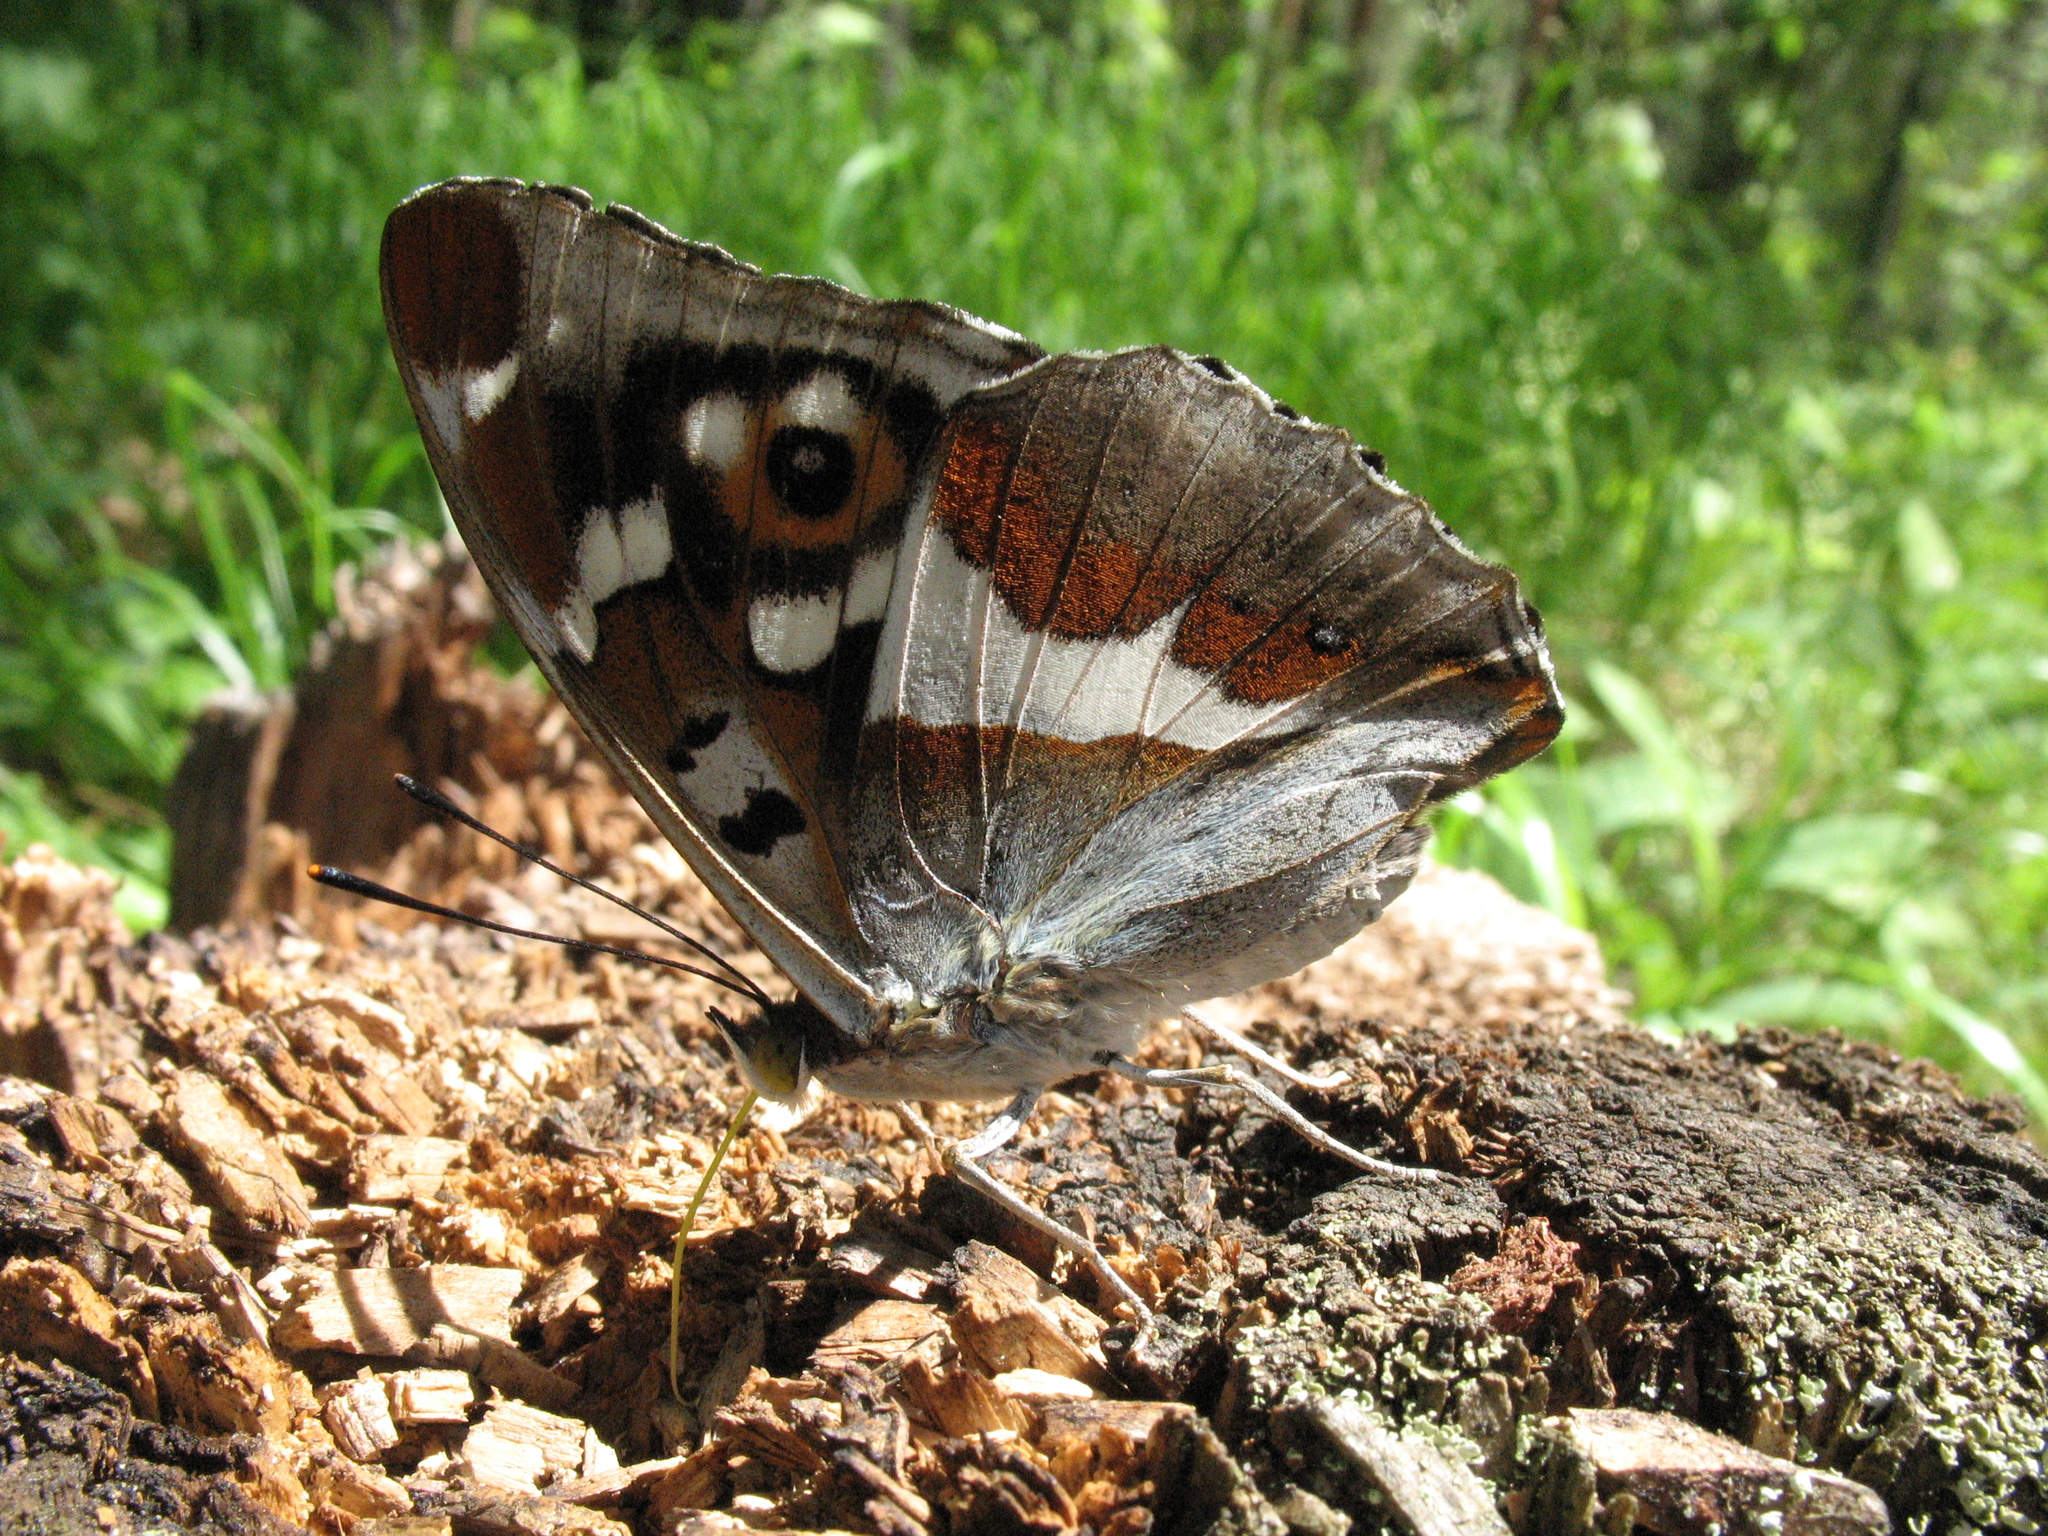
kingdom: Animalia
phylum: Arthropoda
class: Insecta
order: Lepidoptera
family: Nymphalidae
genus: Apatura
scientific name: Apatura iris
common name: Purple emperor
